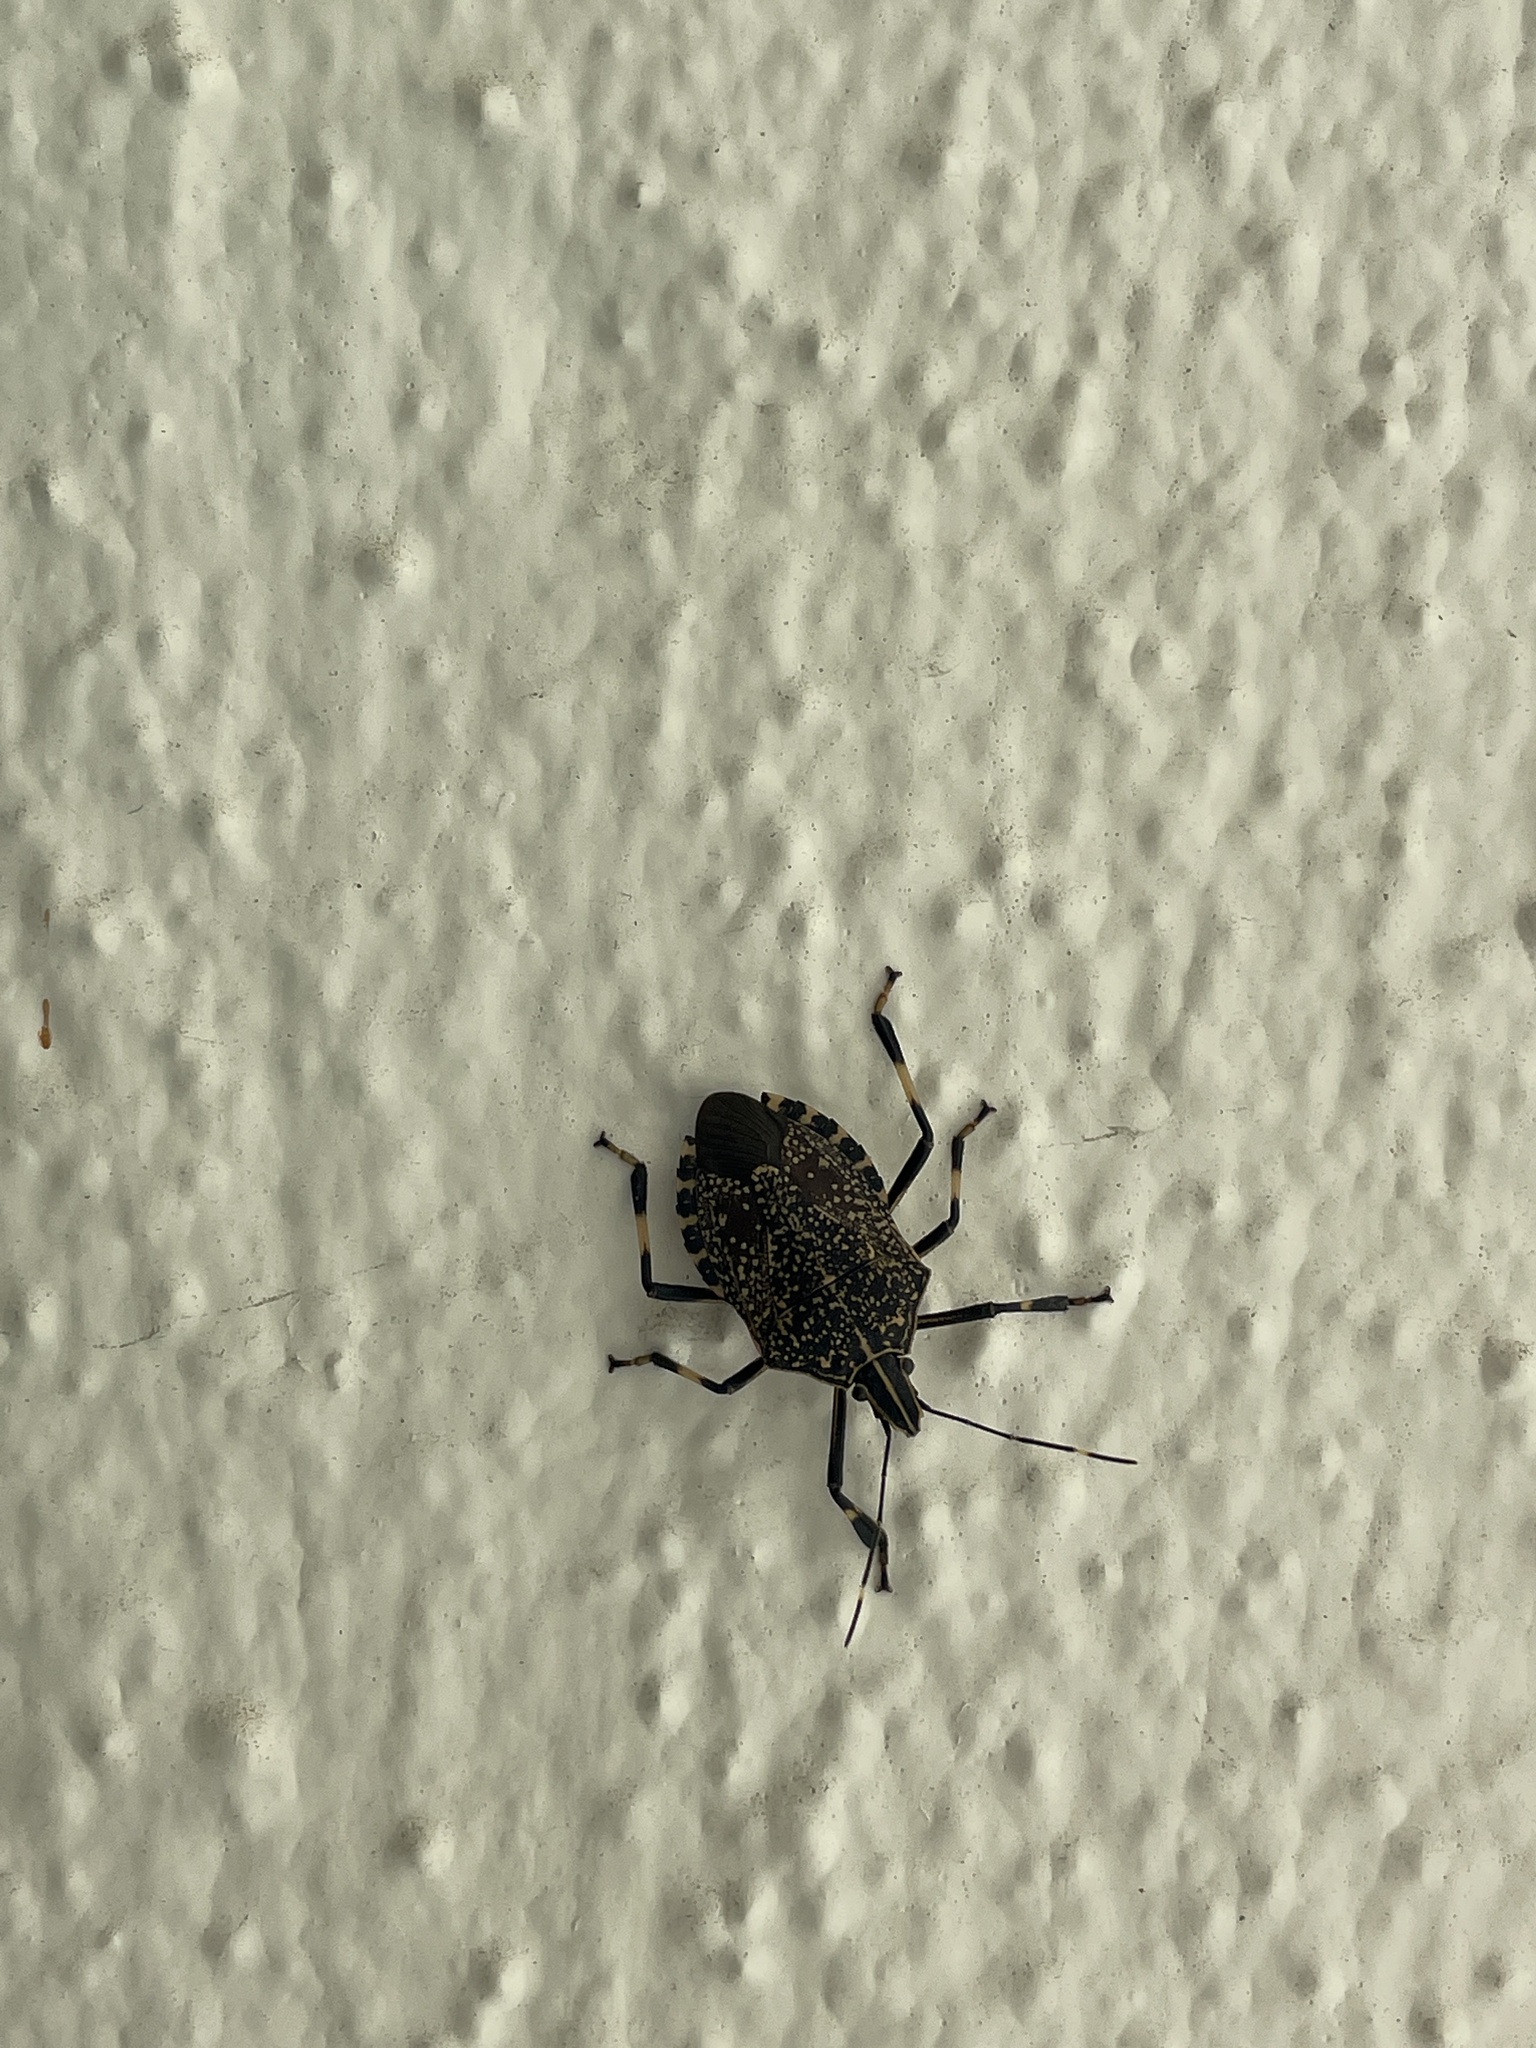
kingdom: Animalia
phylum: Arthropoda
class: Insecta
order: Hemiptera
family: Pentatomidae
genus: Erthesina
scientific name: Erthesina fullo
